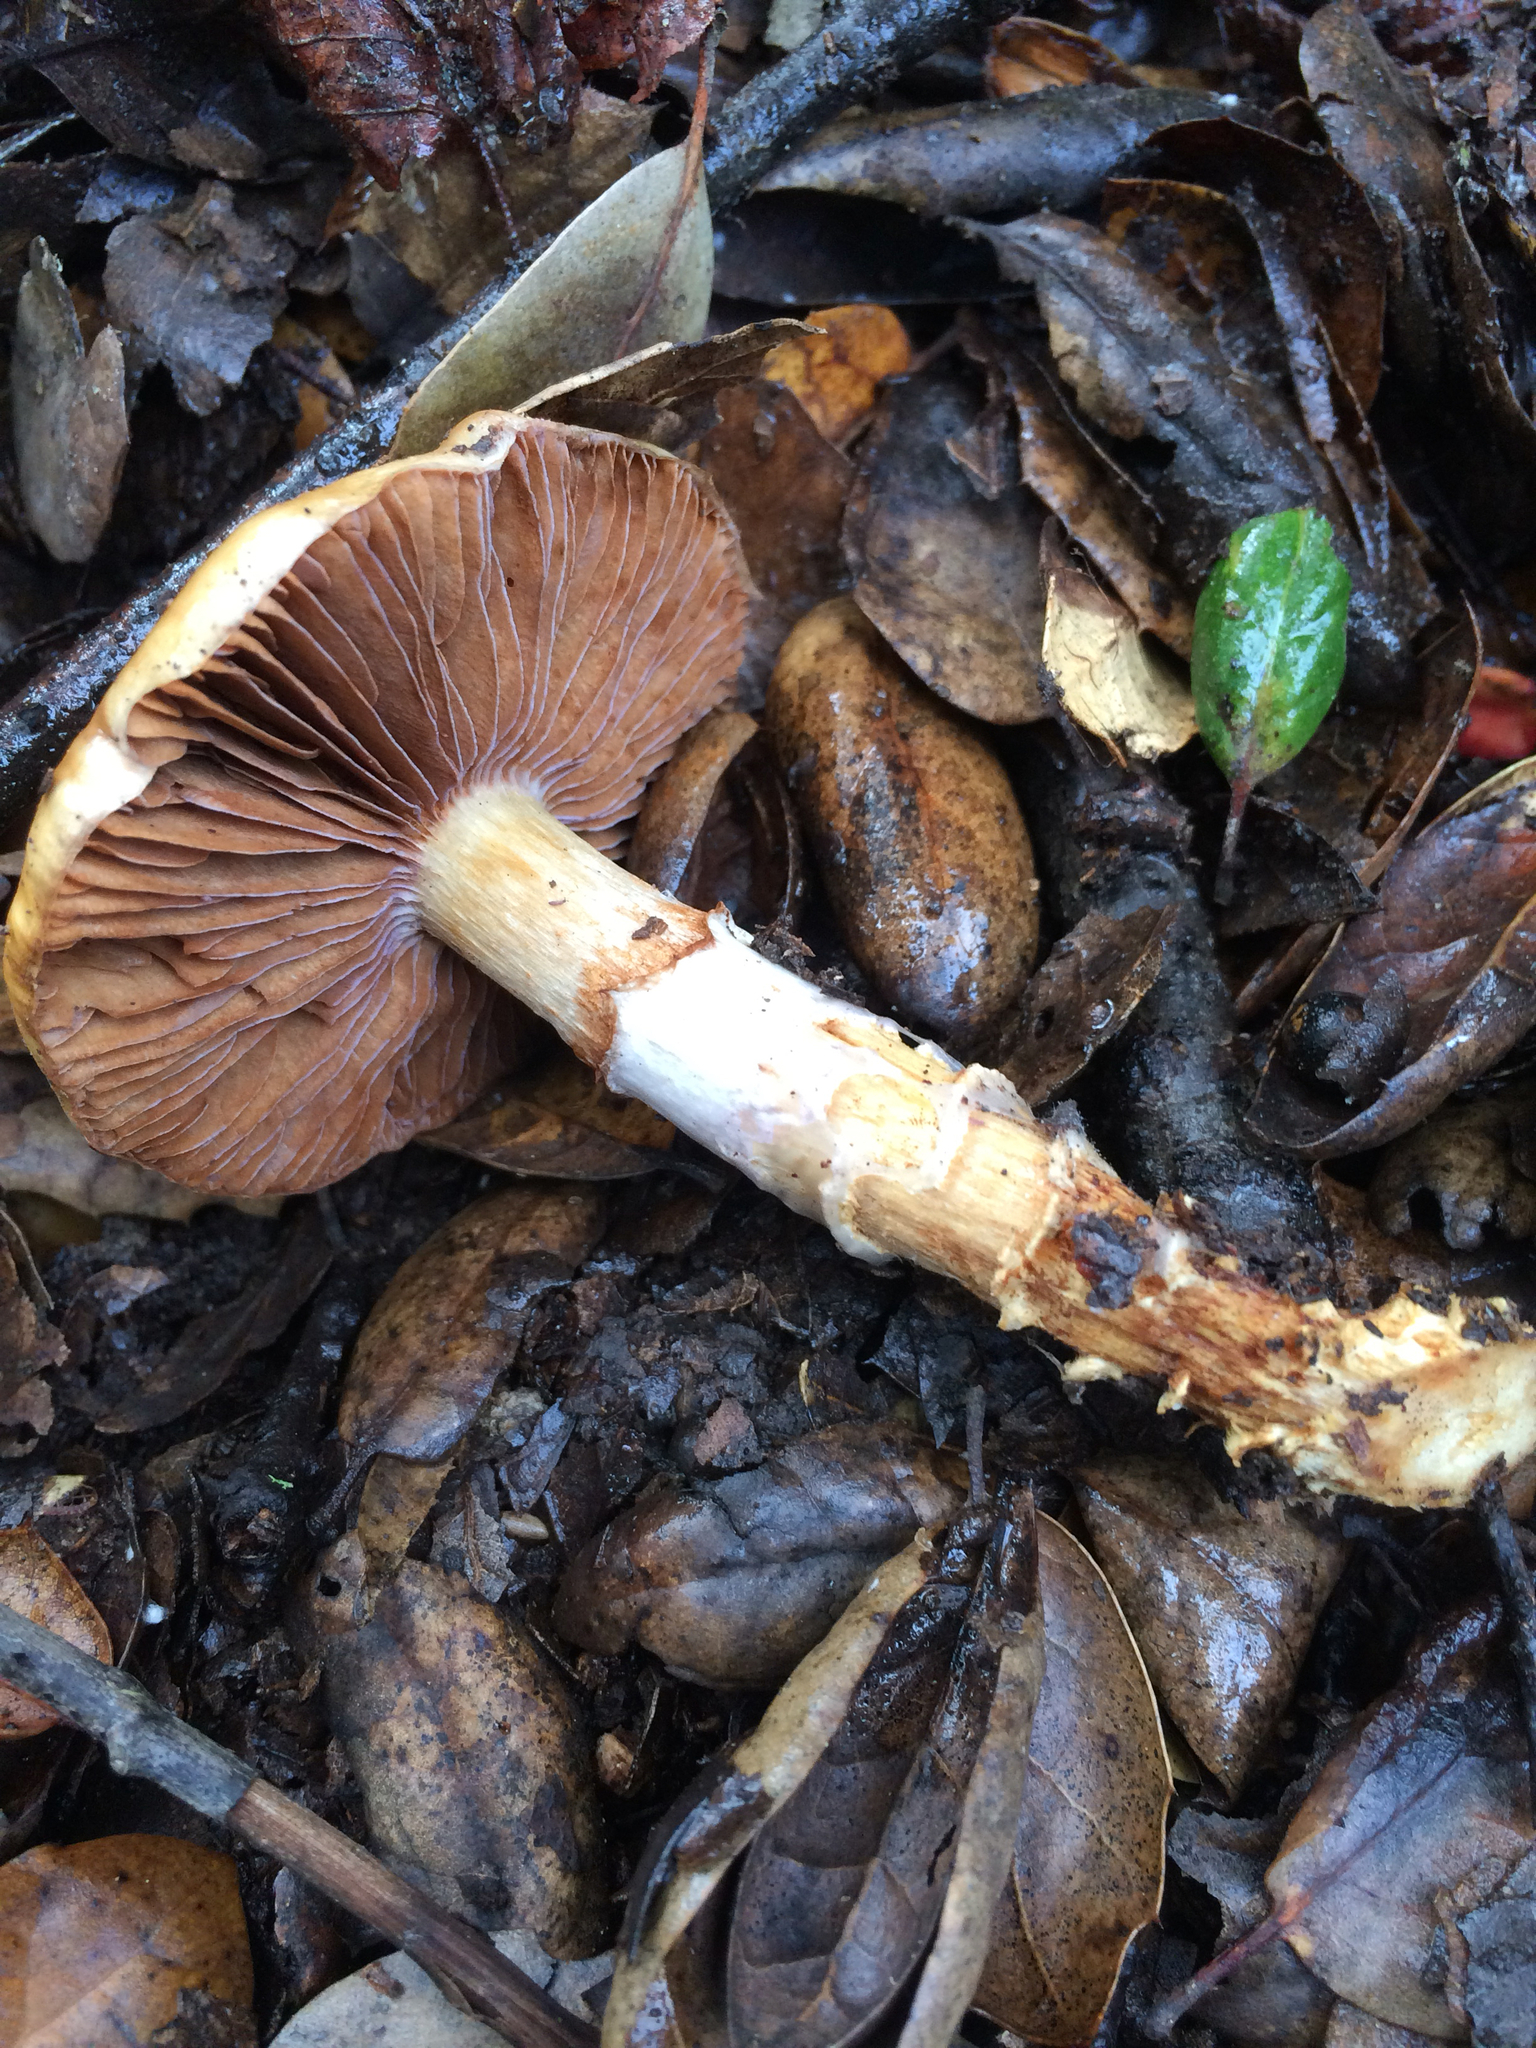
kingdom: Fungi
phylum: Basidiomycota
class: Agaricomycetes
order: Agaricales
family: Cortinariaceae
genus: Cortinarius
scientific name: Cortinarius glutinosoarmillatus
